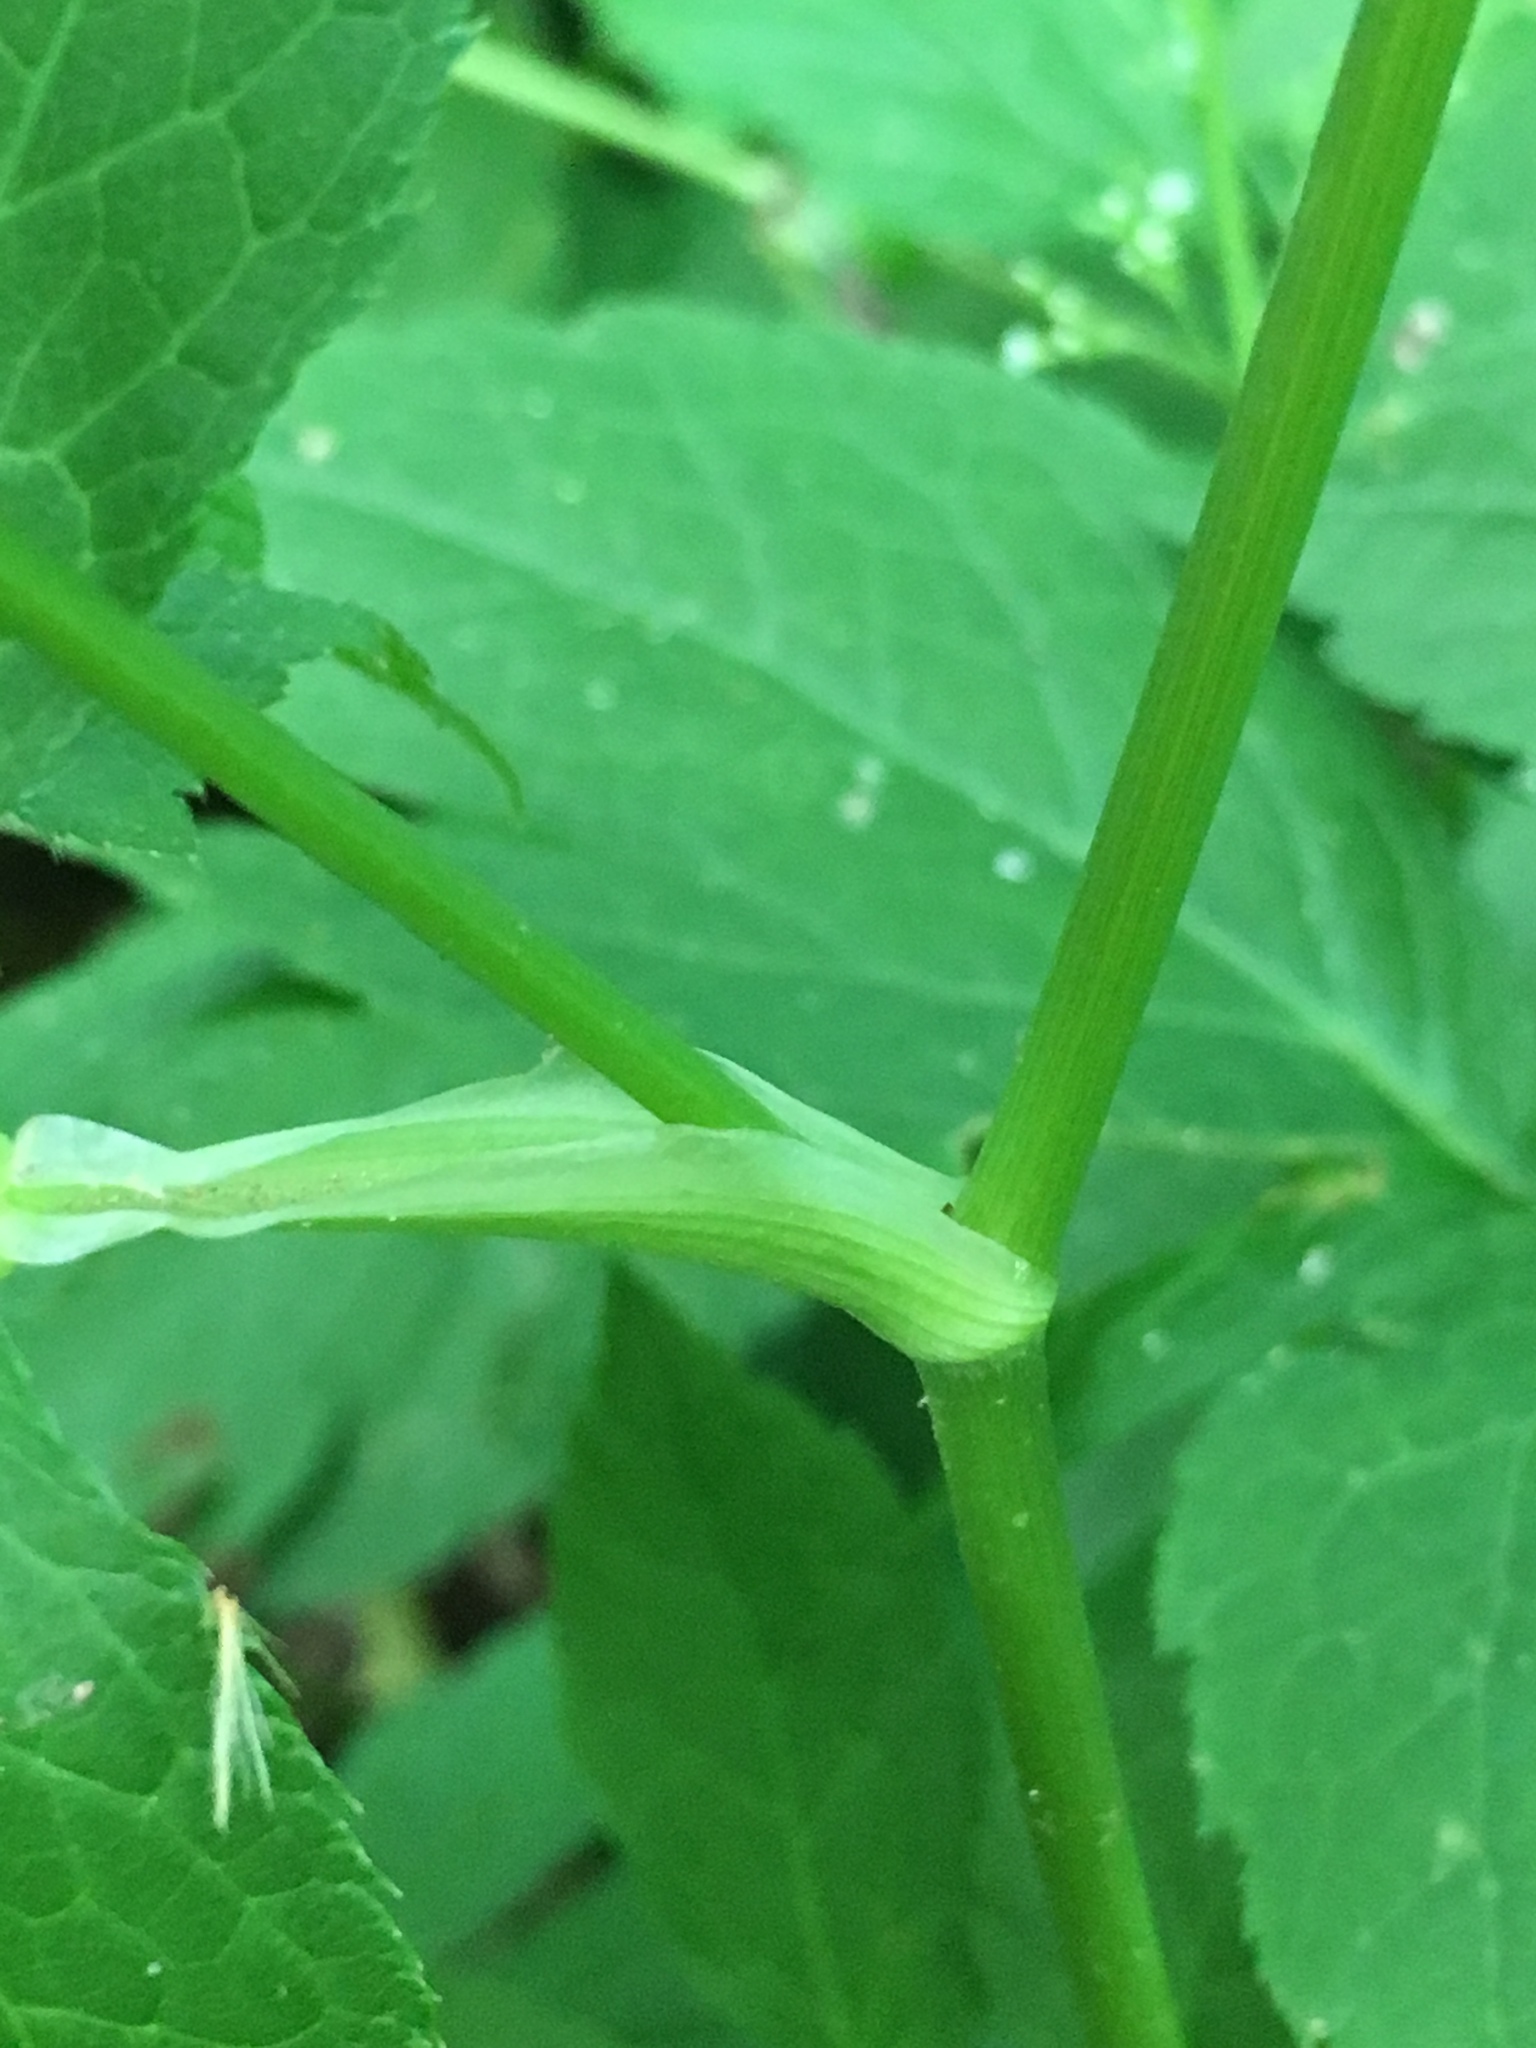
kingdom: Plantae
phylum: Tracheophyta
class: Magnoliopsida
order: Apiales
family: Apiaceae
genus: Cryptotaenia
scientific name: Cryptotaenia canadensis
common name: Honewort
